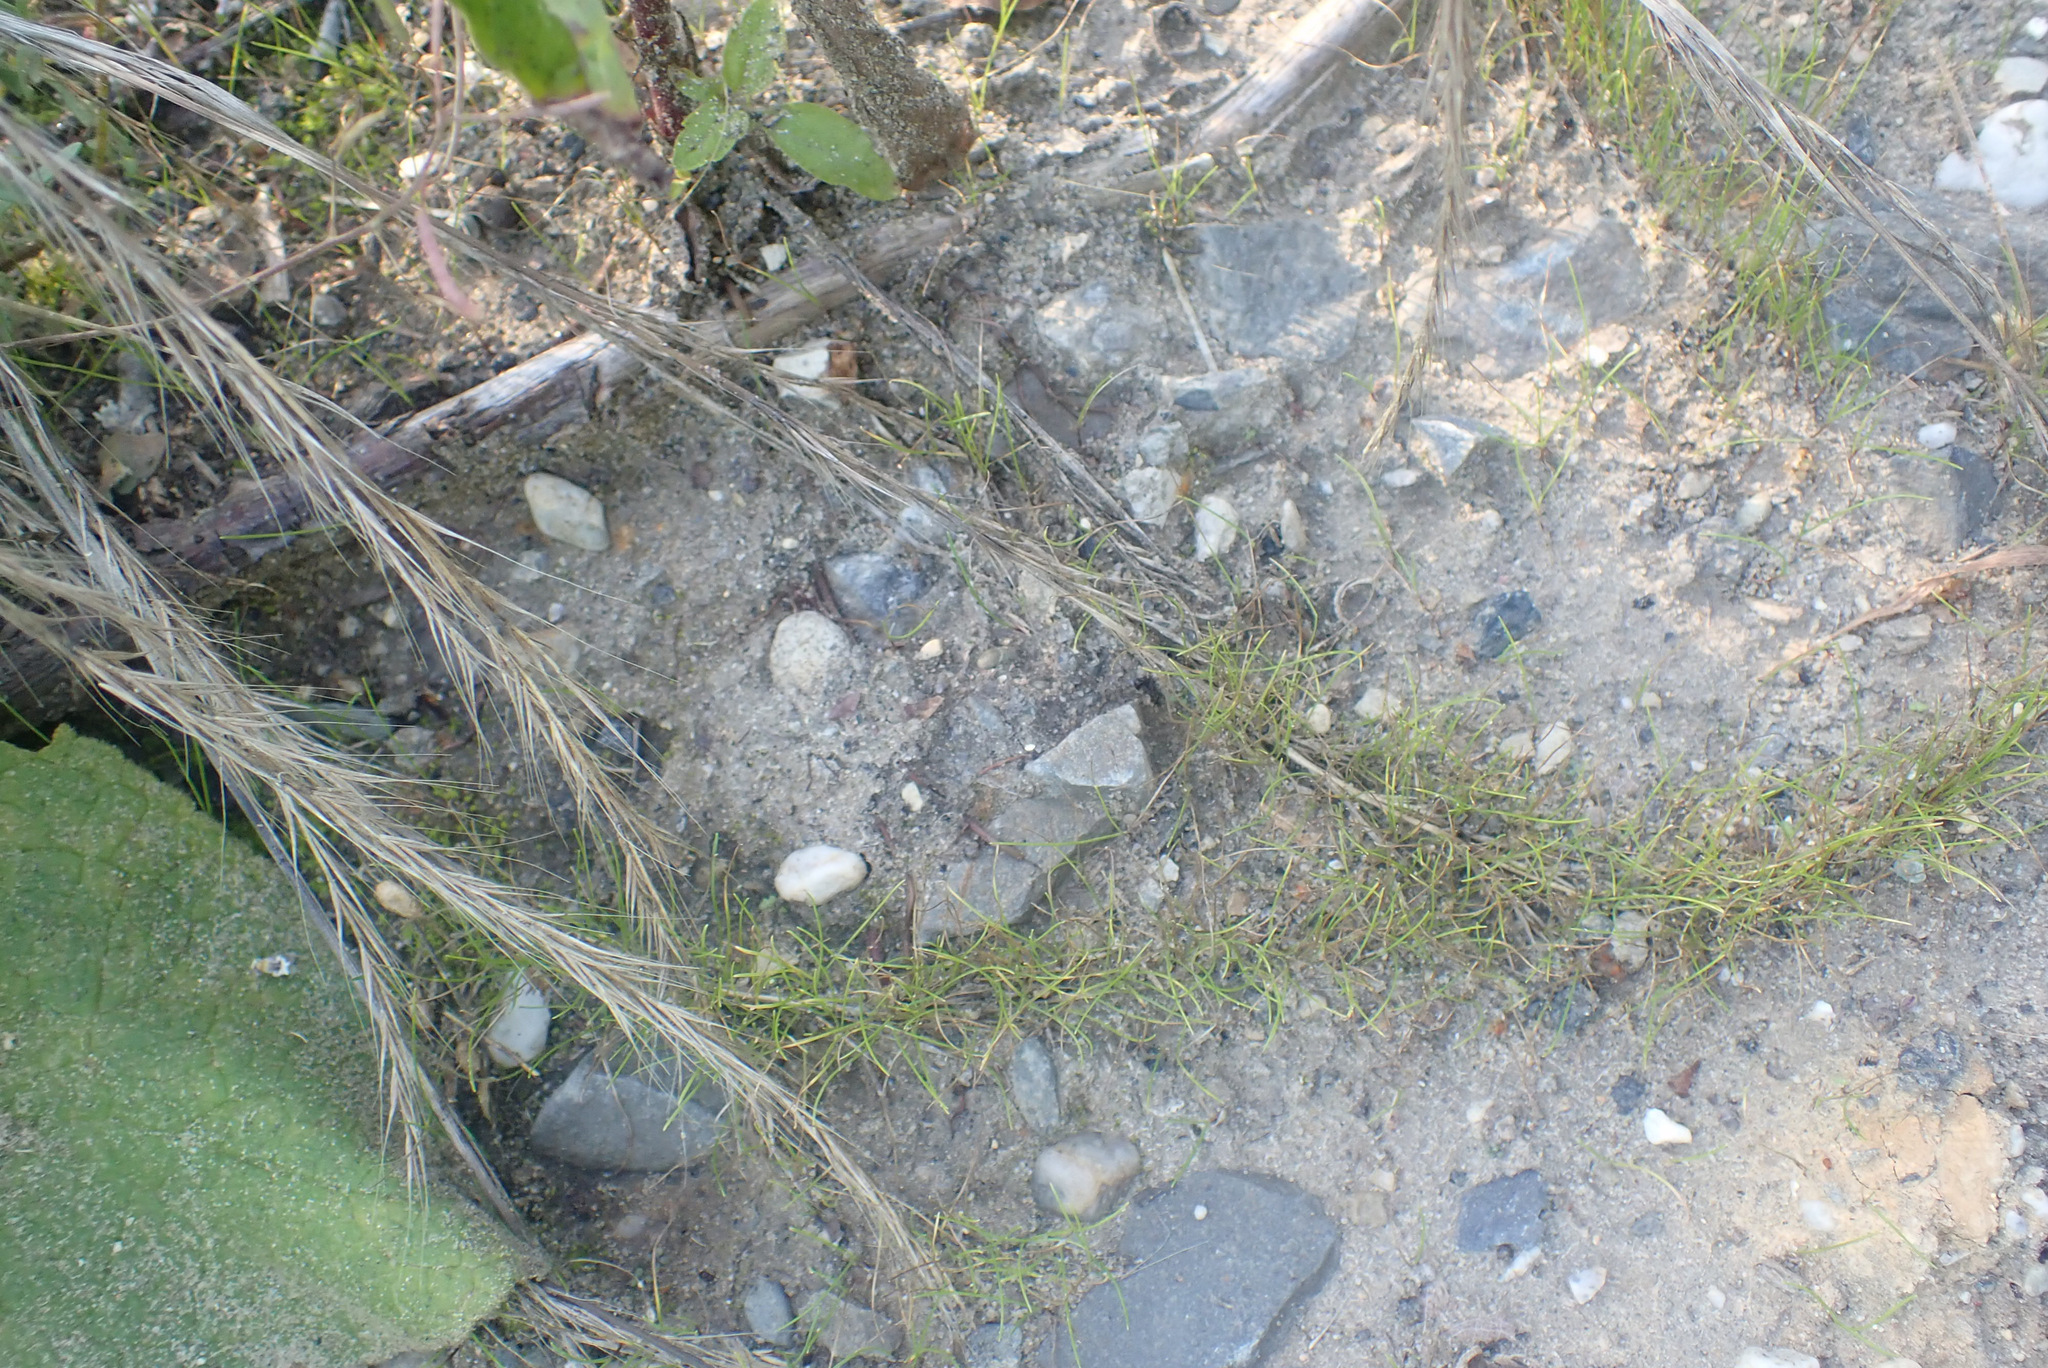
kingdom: Plantae
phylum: Tracheophyta
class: Liliopsida
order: Poales
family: Poaceae
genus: Festuca
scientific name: Festuca myuros
